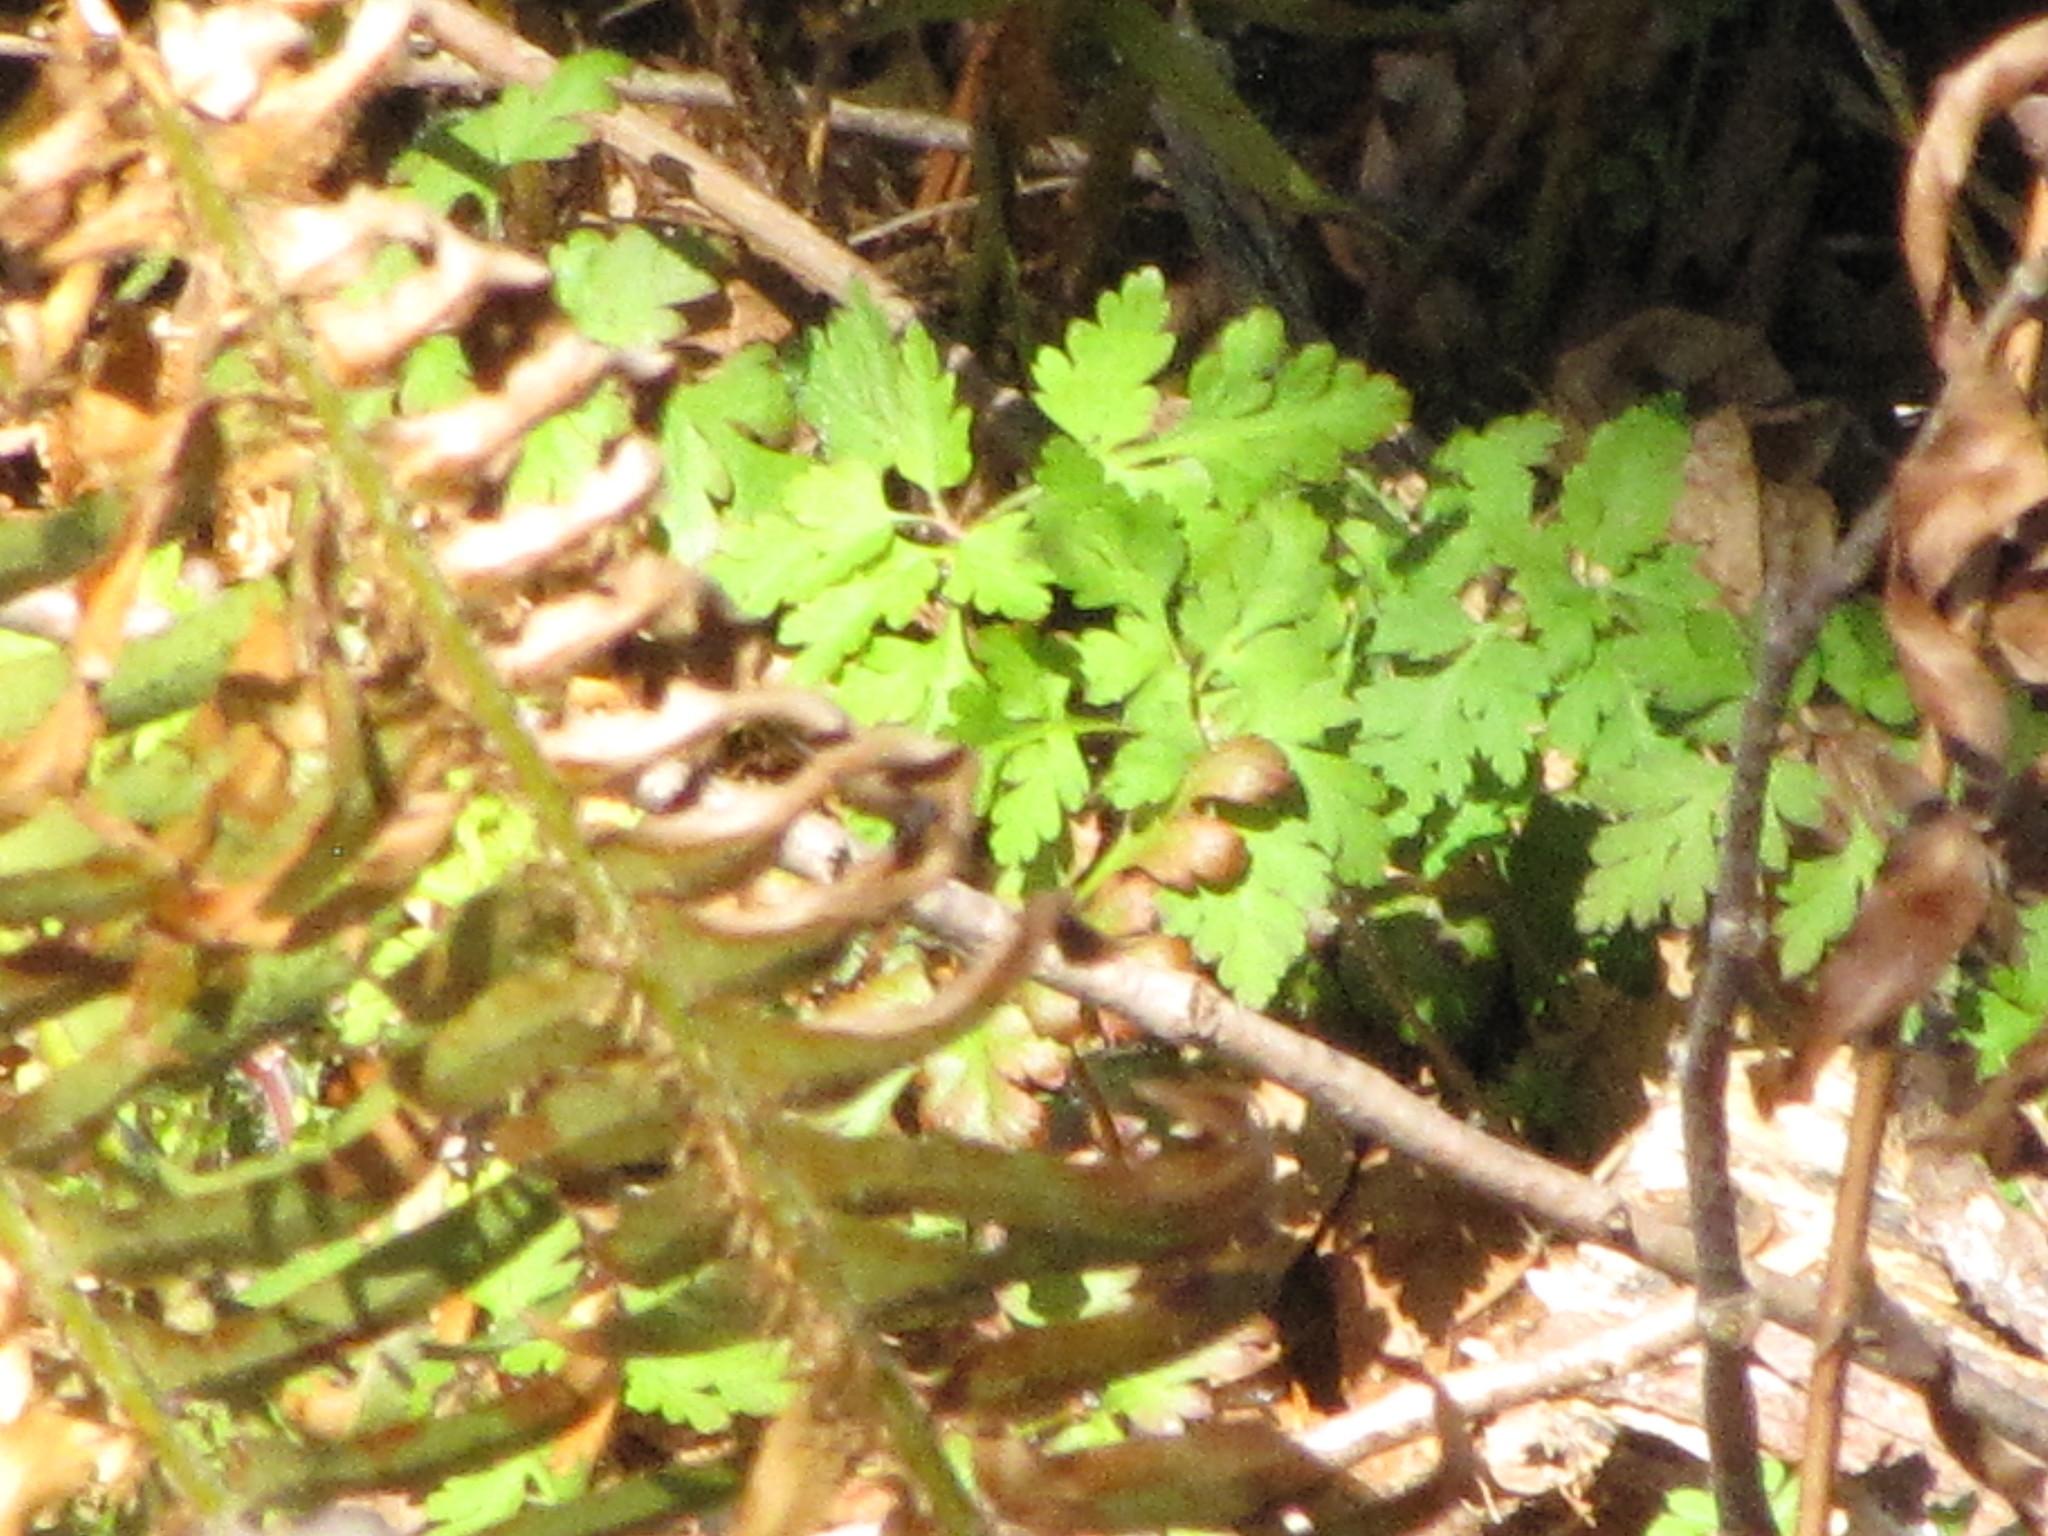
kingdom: Plantae
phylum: Tracheophyta
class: Magnoliopsida
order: Geraniales
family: Geraniaceae
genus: Geranium
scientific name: Geranium robertianum
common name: Herb-robert
